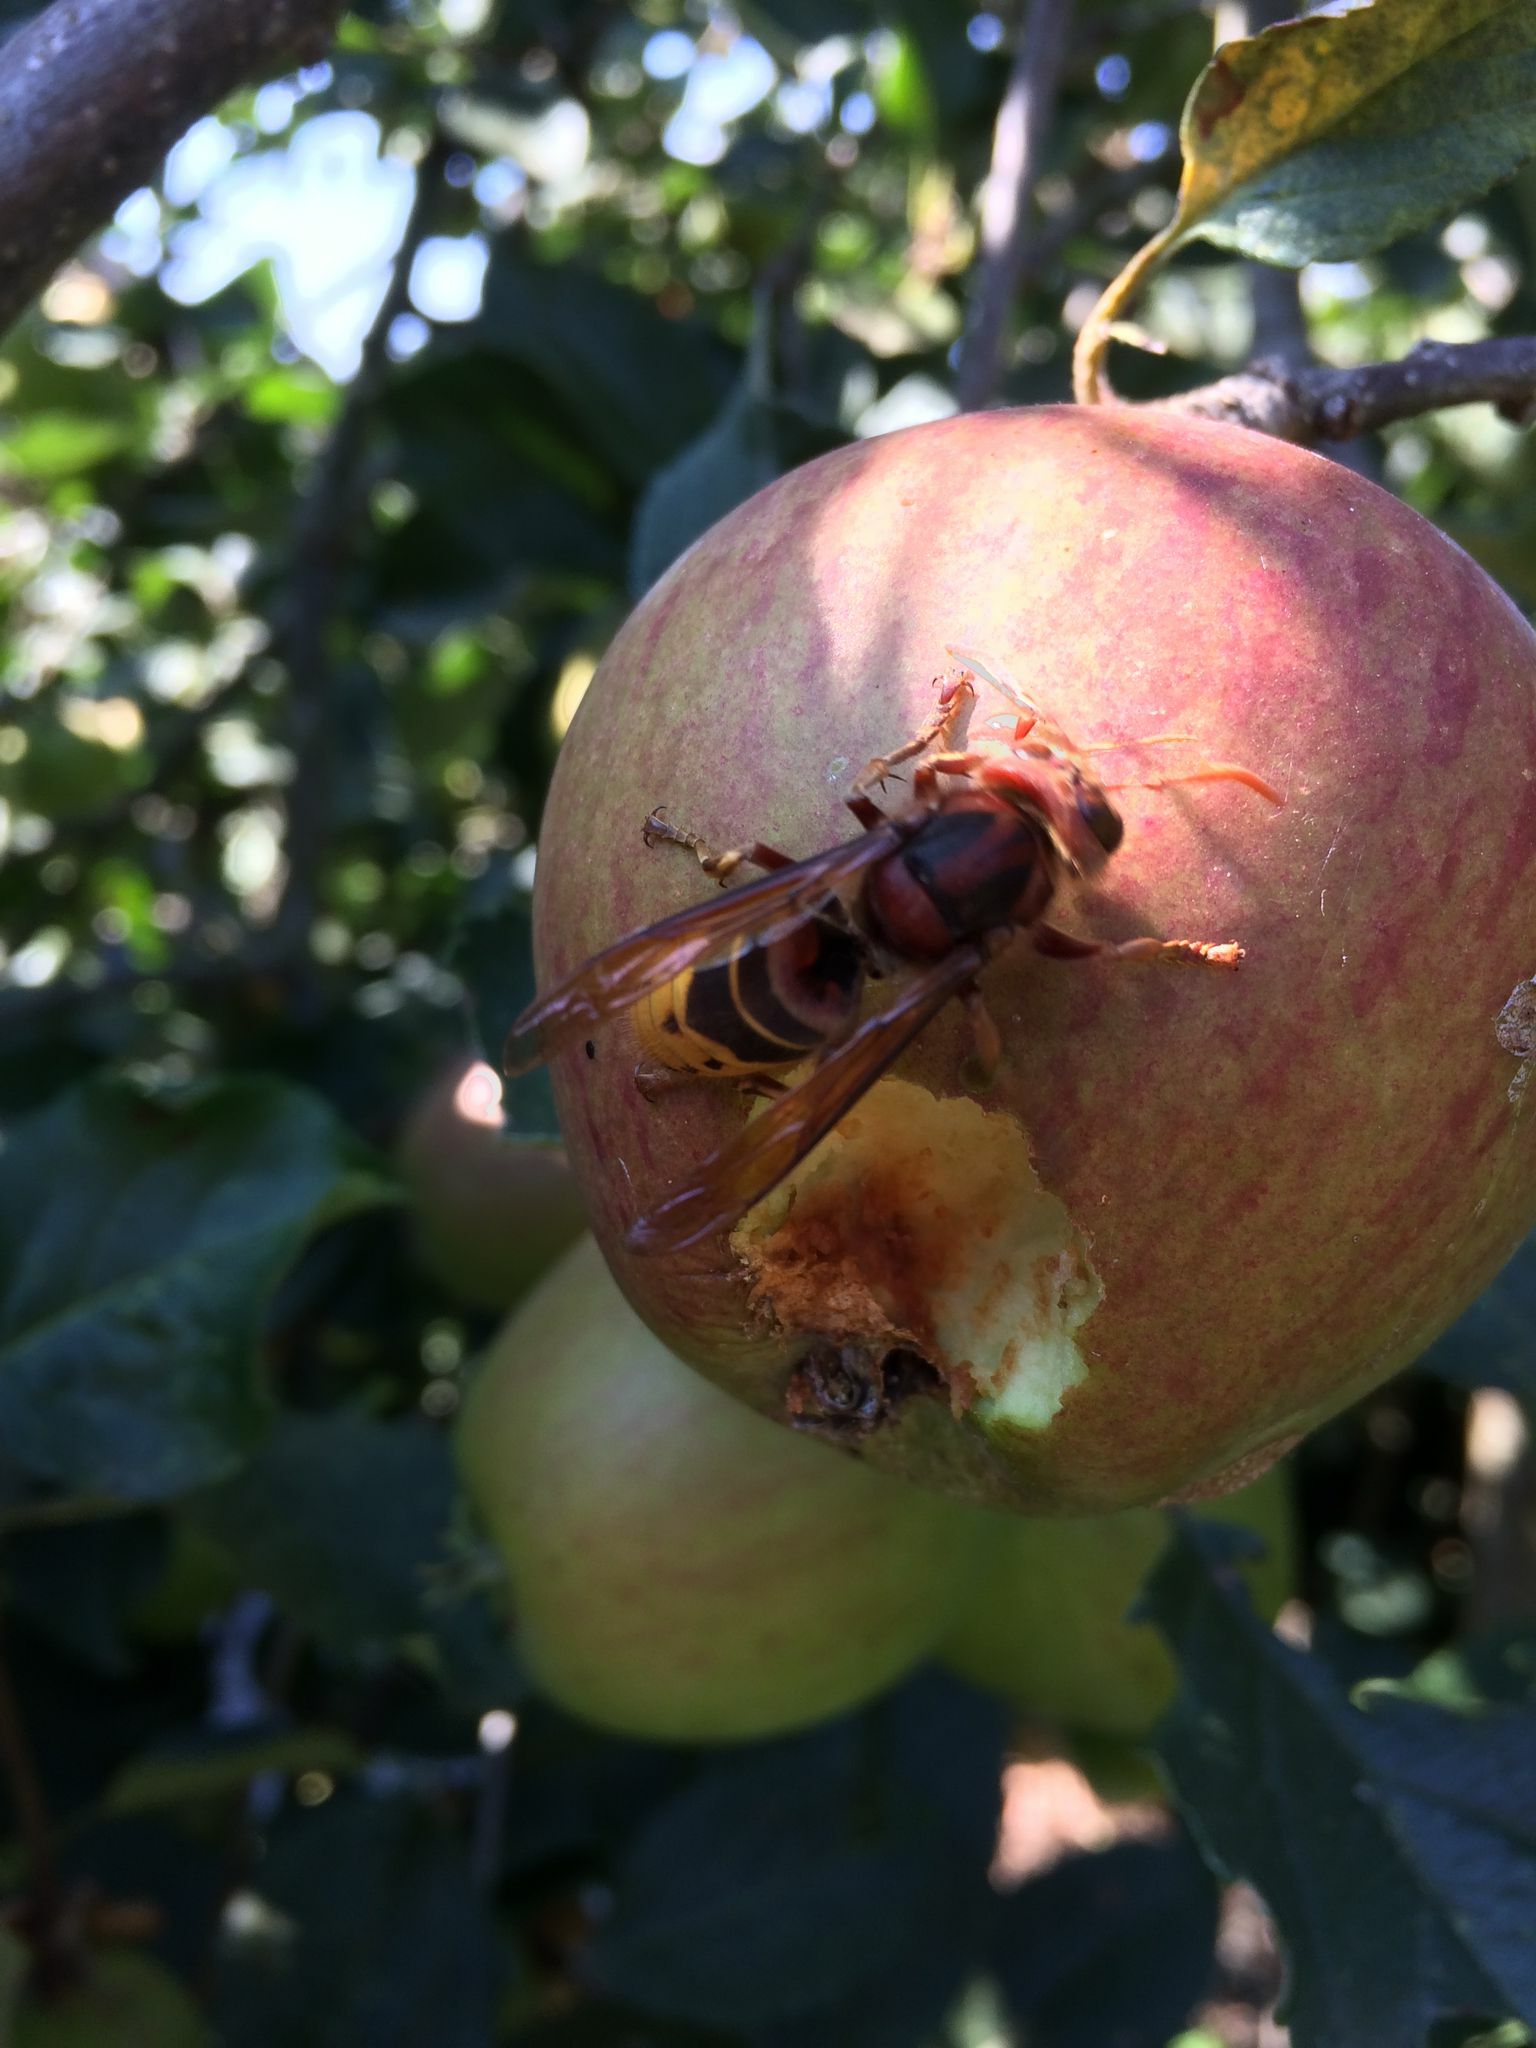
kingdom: Animalia
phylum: Arthropoda
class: Insecta
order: Hymenoptera
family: Vespidae
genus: Vespa
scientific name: Vespa crabro
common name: Hornet
